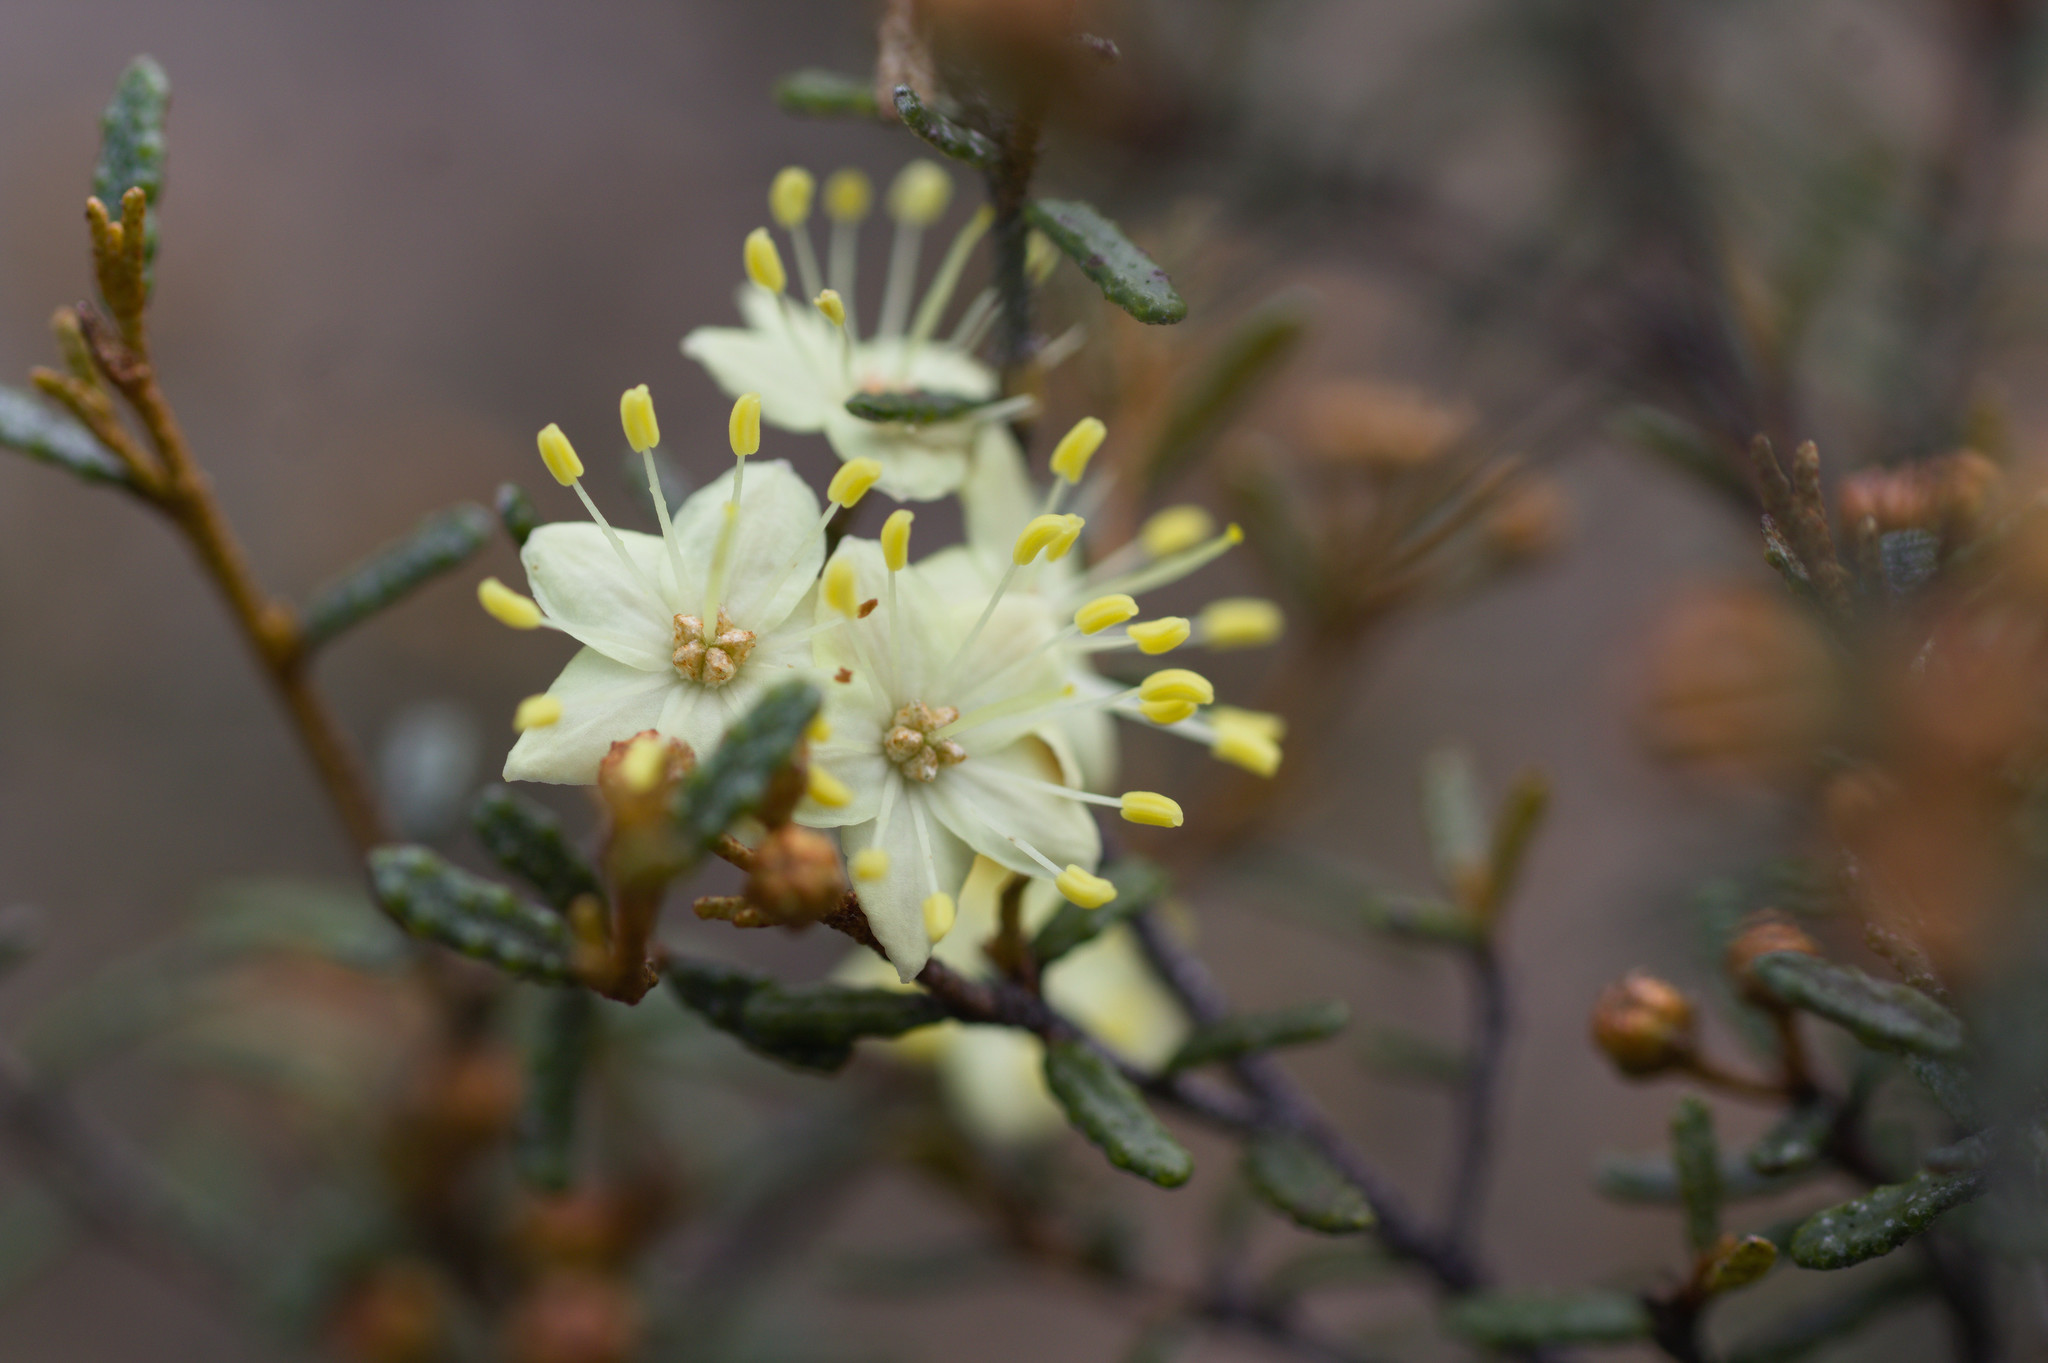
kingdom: Plantae
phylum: Tracheophyta
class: Magnoliopsida
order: Sapindales
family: Rutaceae
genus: Phebalium
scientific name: Phebalium tuberculosum
